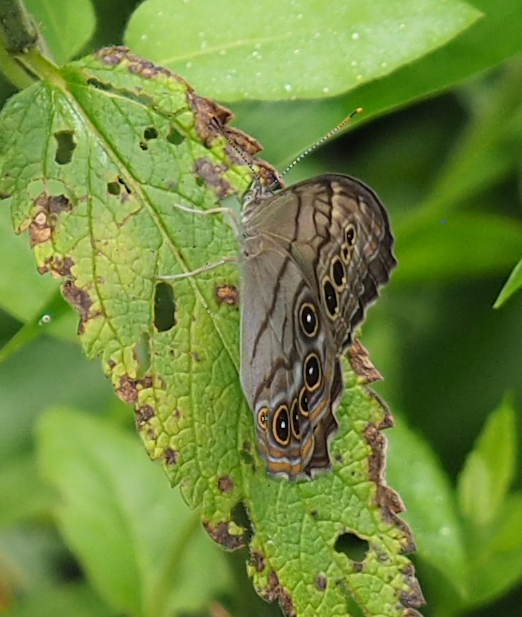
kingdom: Animalia
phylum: Arthropoda
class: Insecta
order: Lepidoptera
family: Nymphalidae
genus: Lethe
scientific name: Lethe anthedon
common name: Northern pearly-eye
